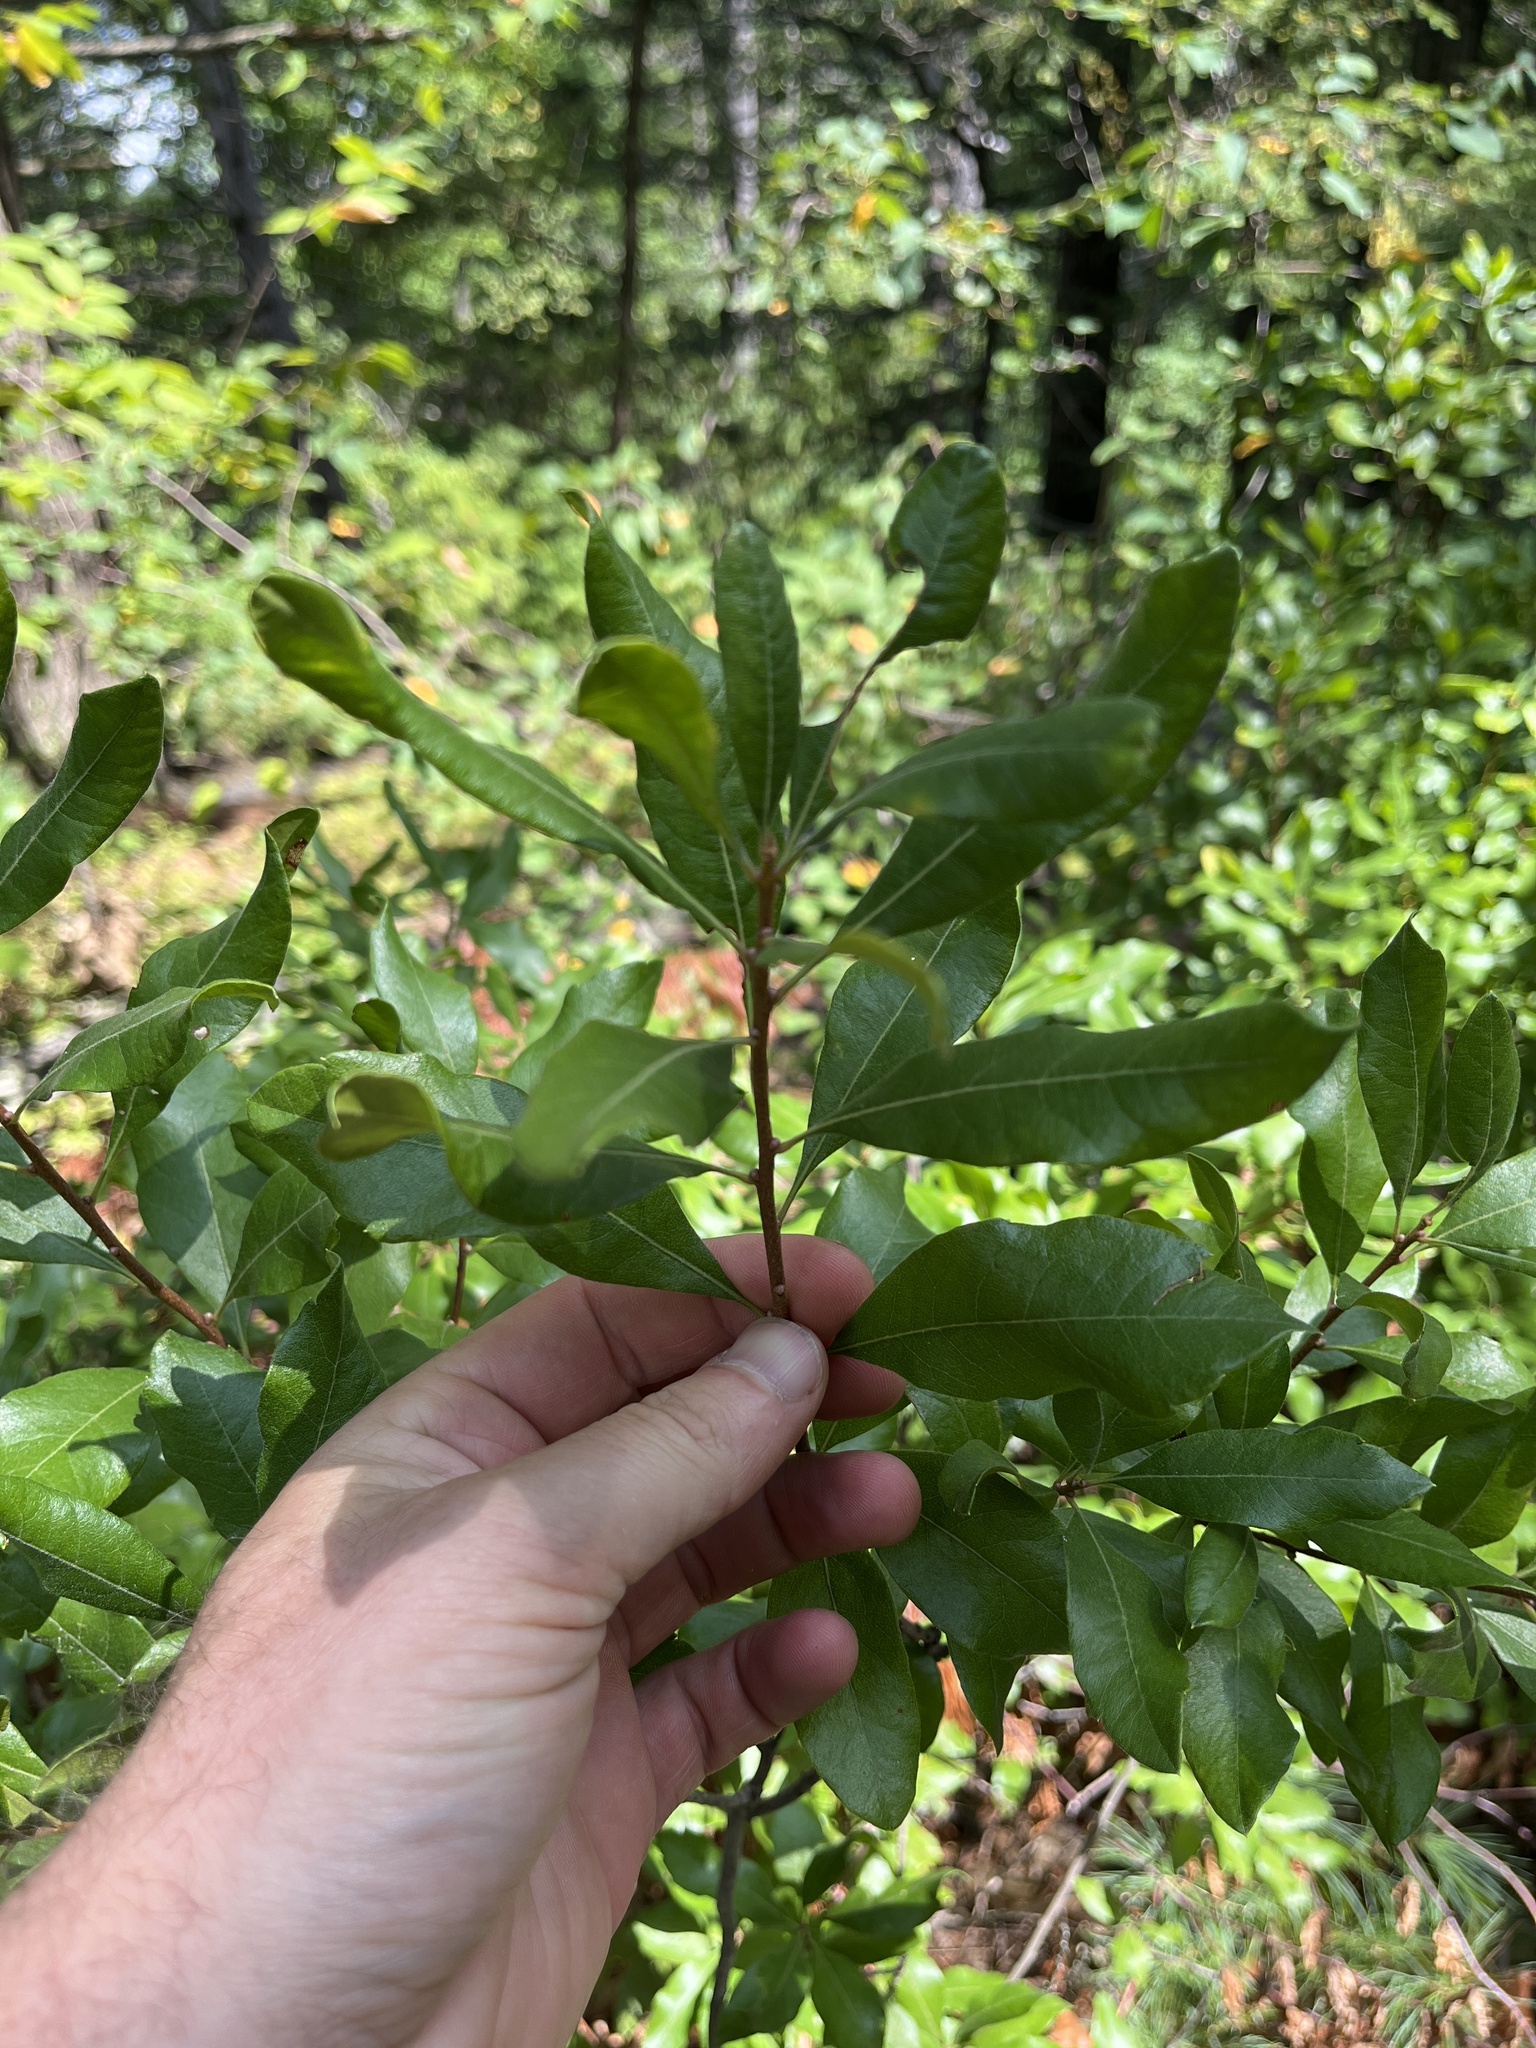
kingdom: Plantae
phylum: Tracheophyta
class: Magnoliopsida
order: Fagales
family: Myricaceae
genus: Morella
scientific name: Morella pensylvanica
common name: Northern bayberry
